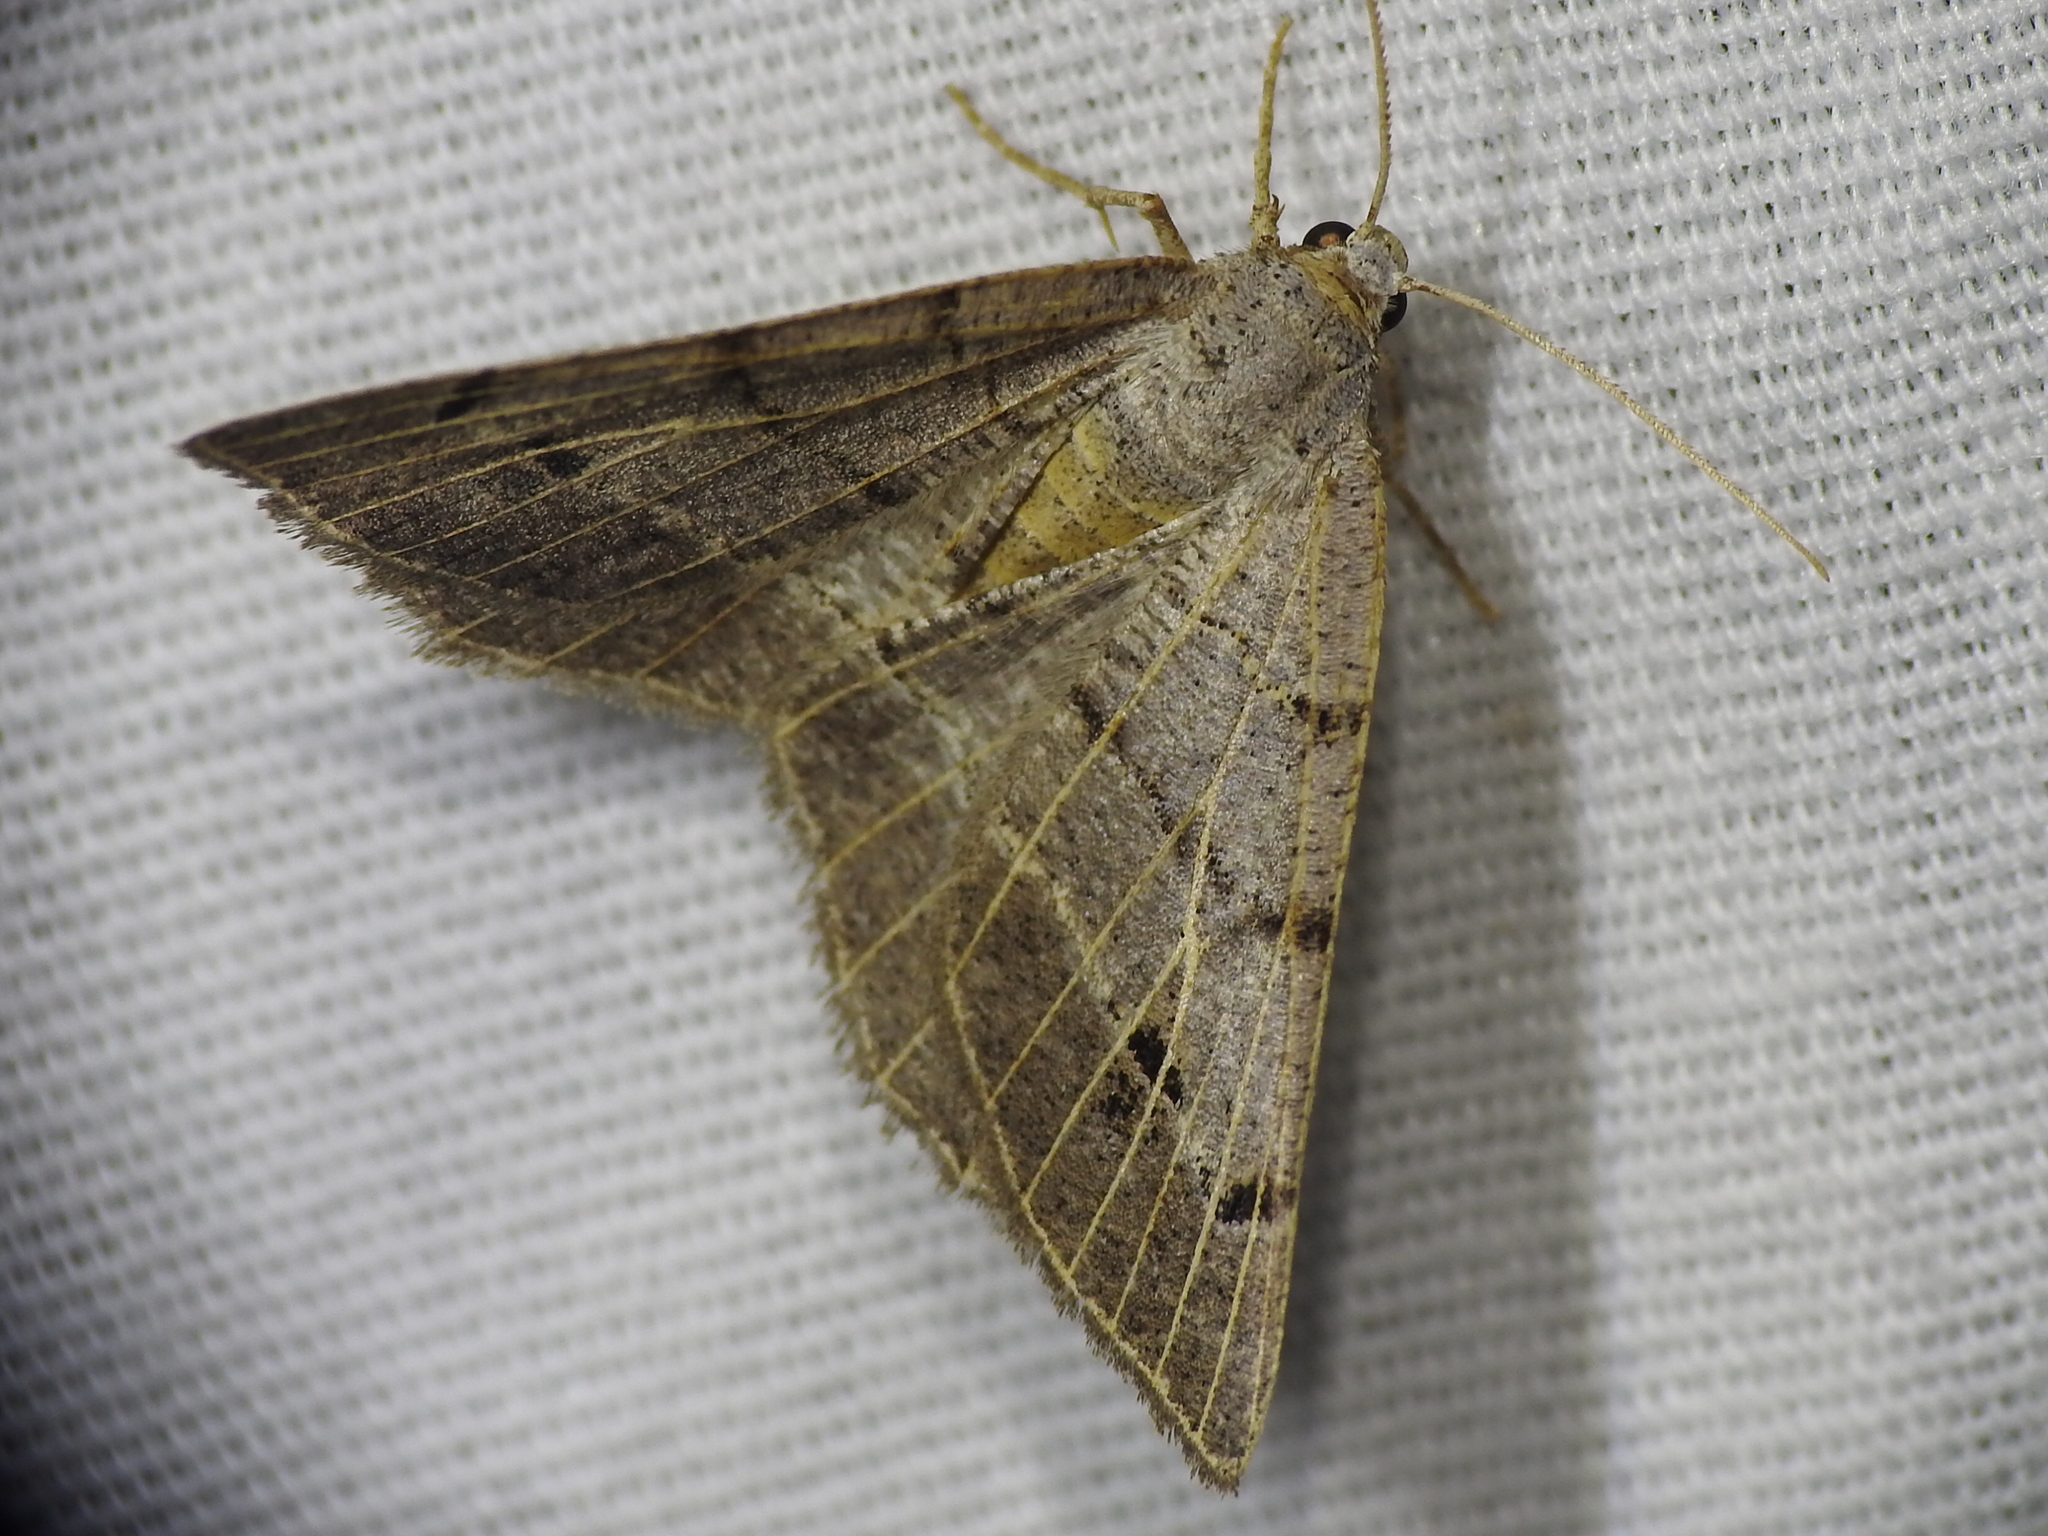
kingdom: Animalia
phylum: Arthropoda
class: Insecta
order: Lepidoptera
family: Geometridae
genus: Isturgia
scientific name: Isturgia dislocaria
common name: Pale-viened enconista
